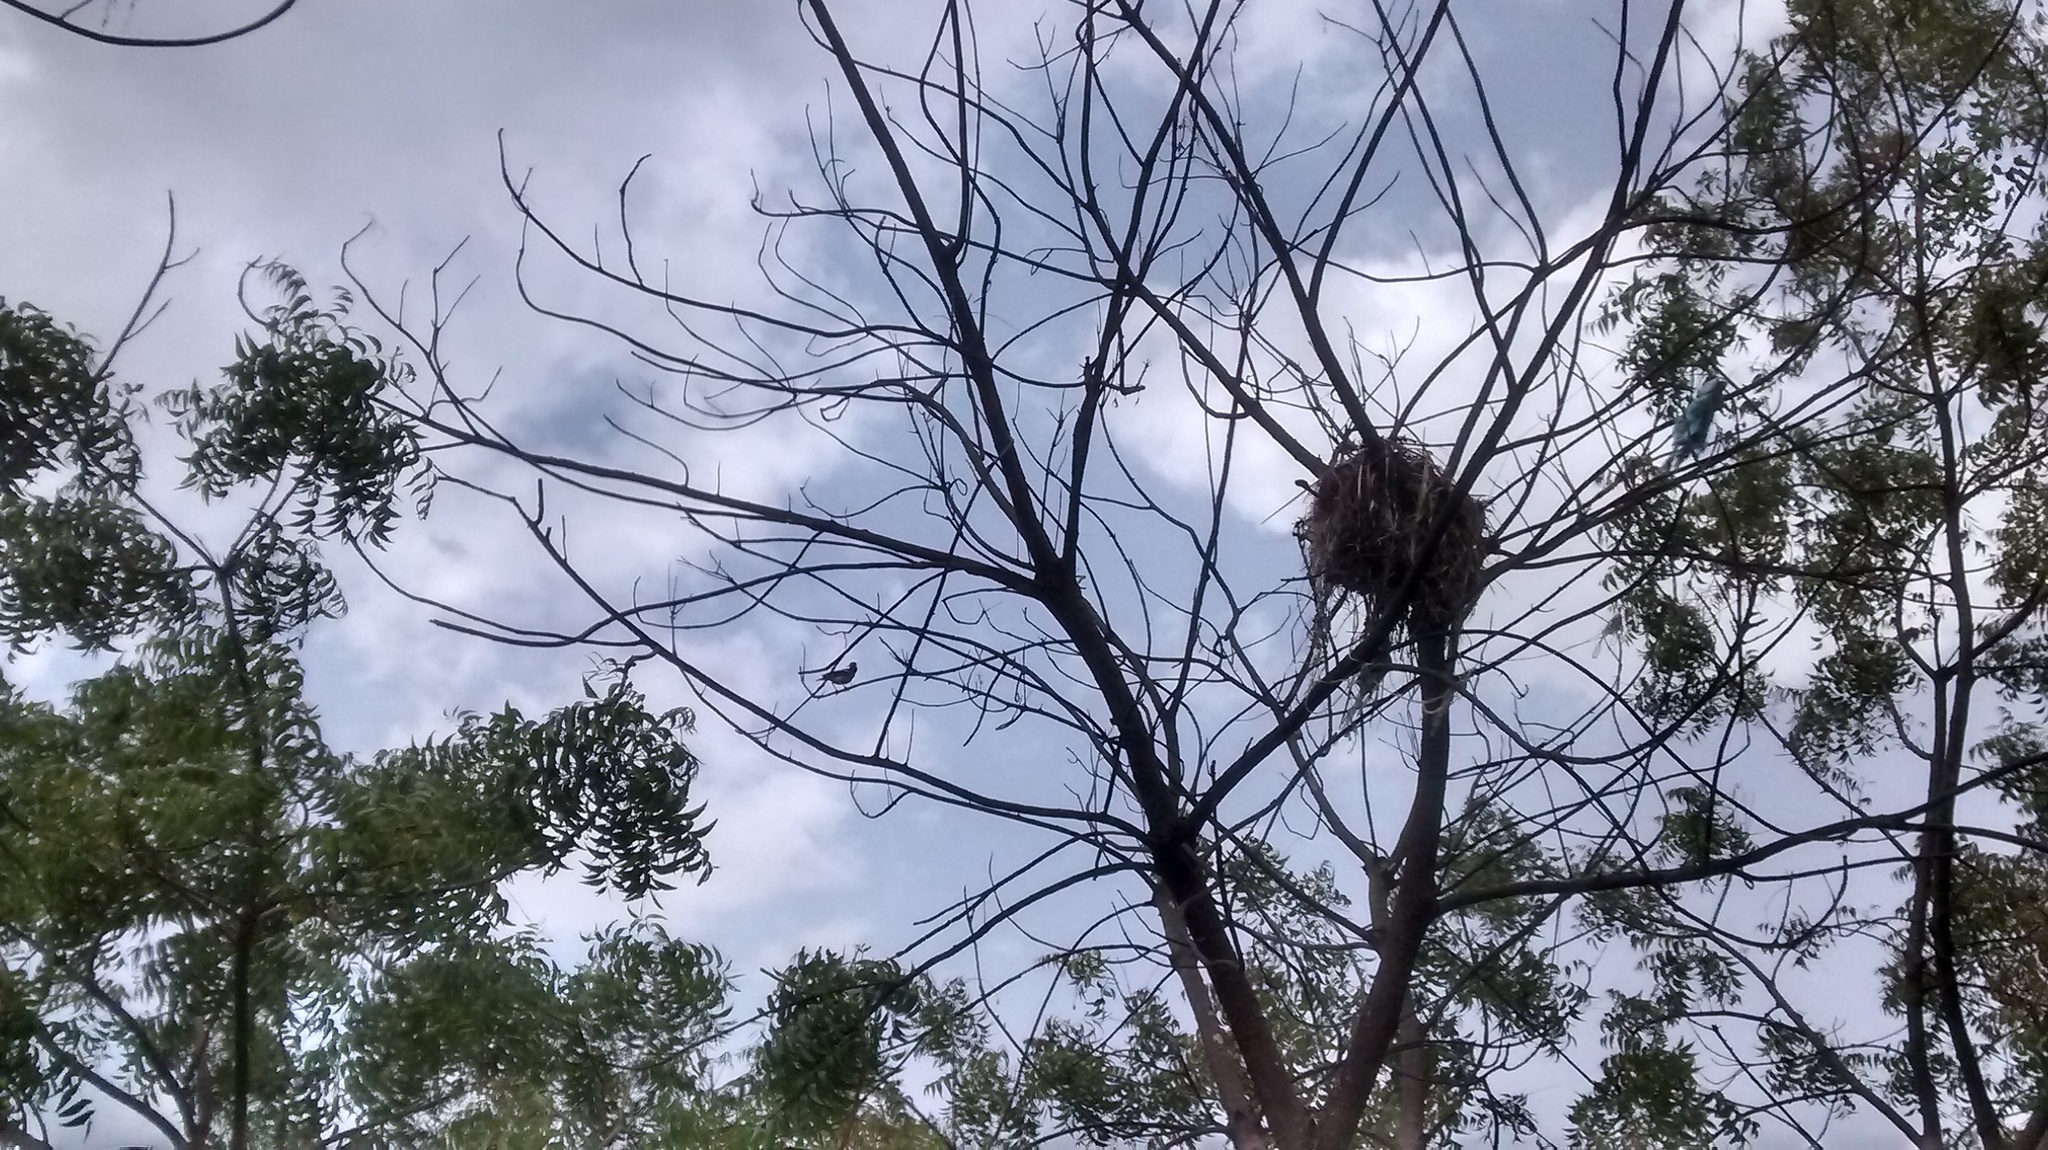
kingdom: Animalia
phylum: Chordata
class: Aves
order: Passeriformes
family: Sturnidae
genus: Gracupica
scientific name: Gracupica contra
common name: Pied myna
